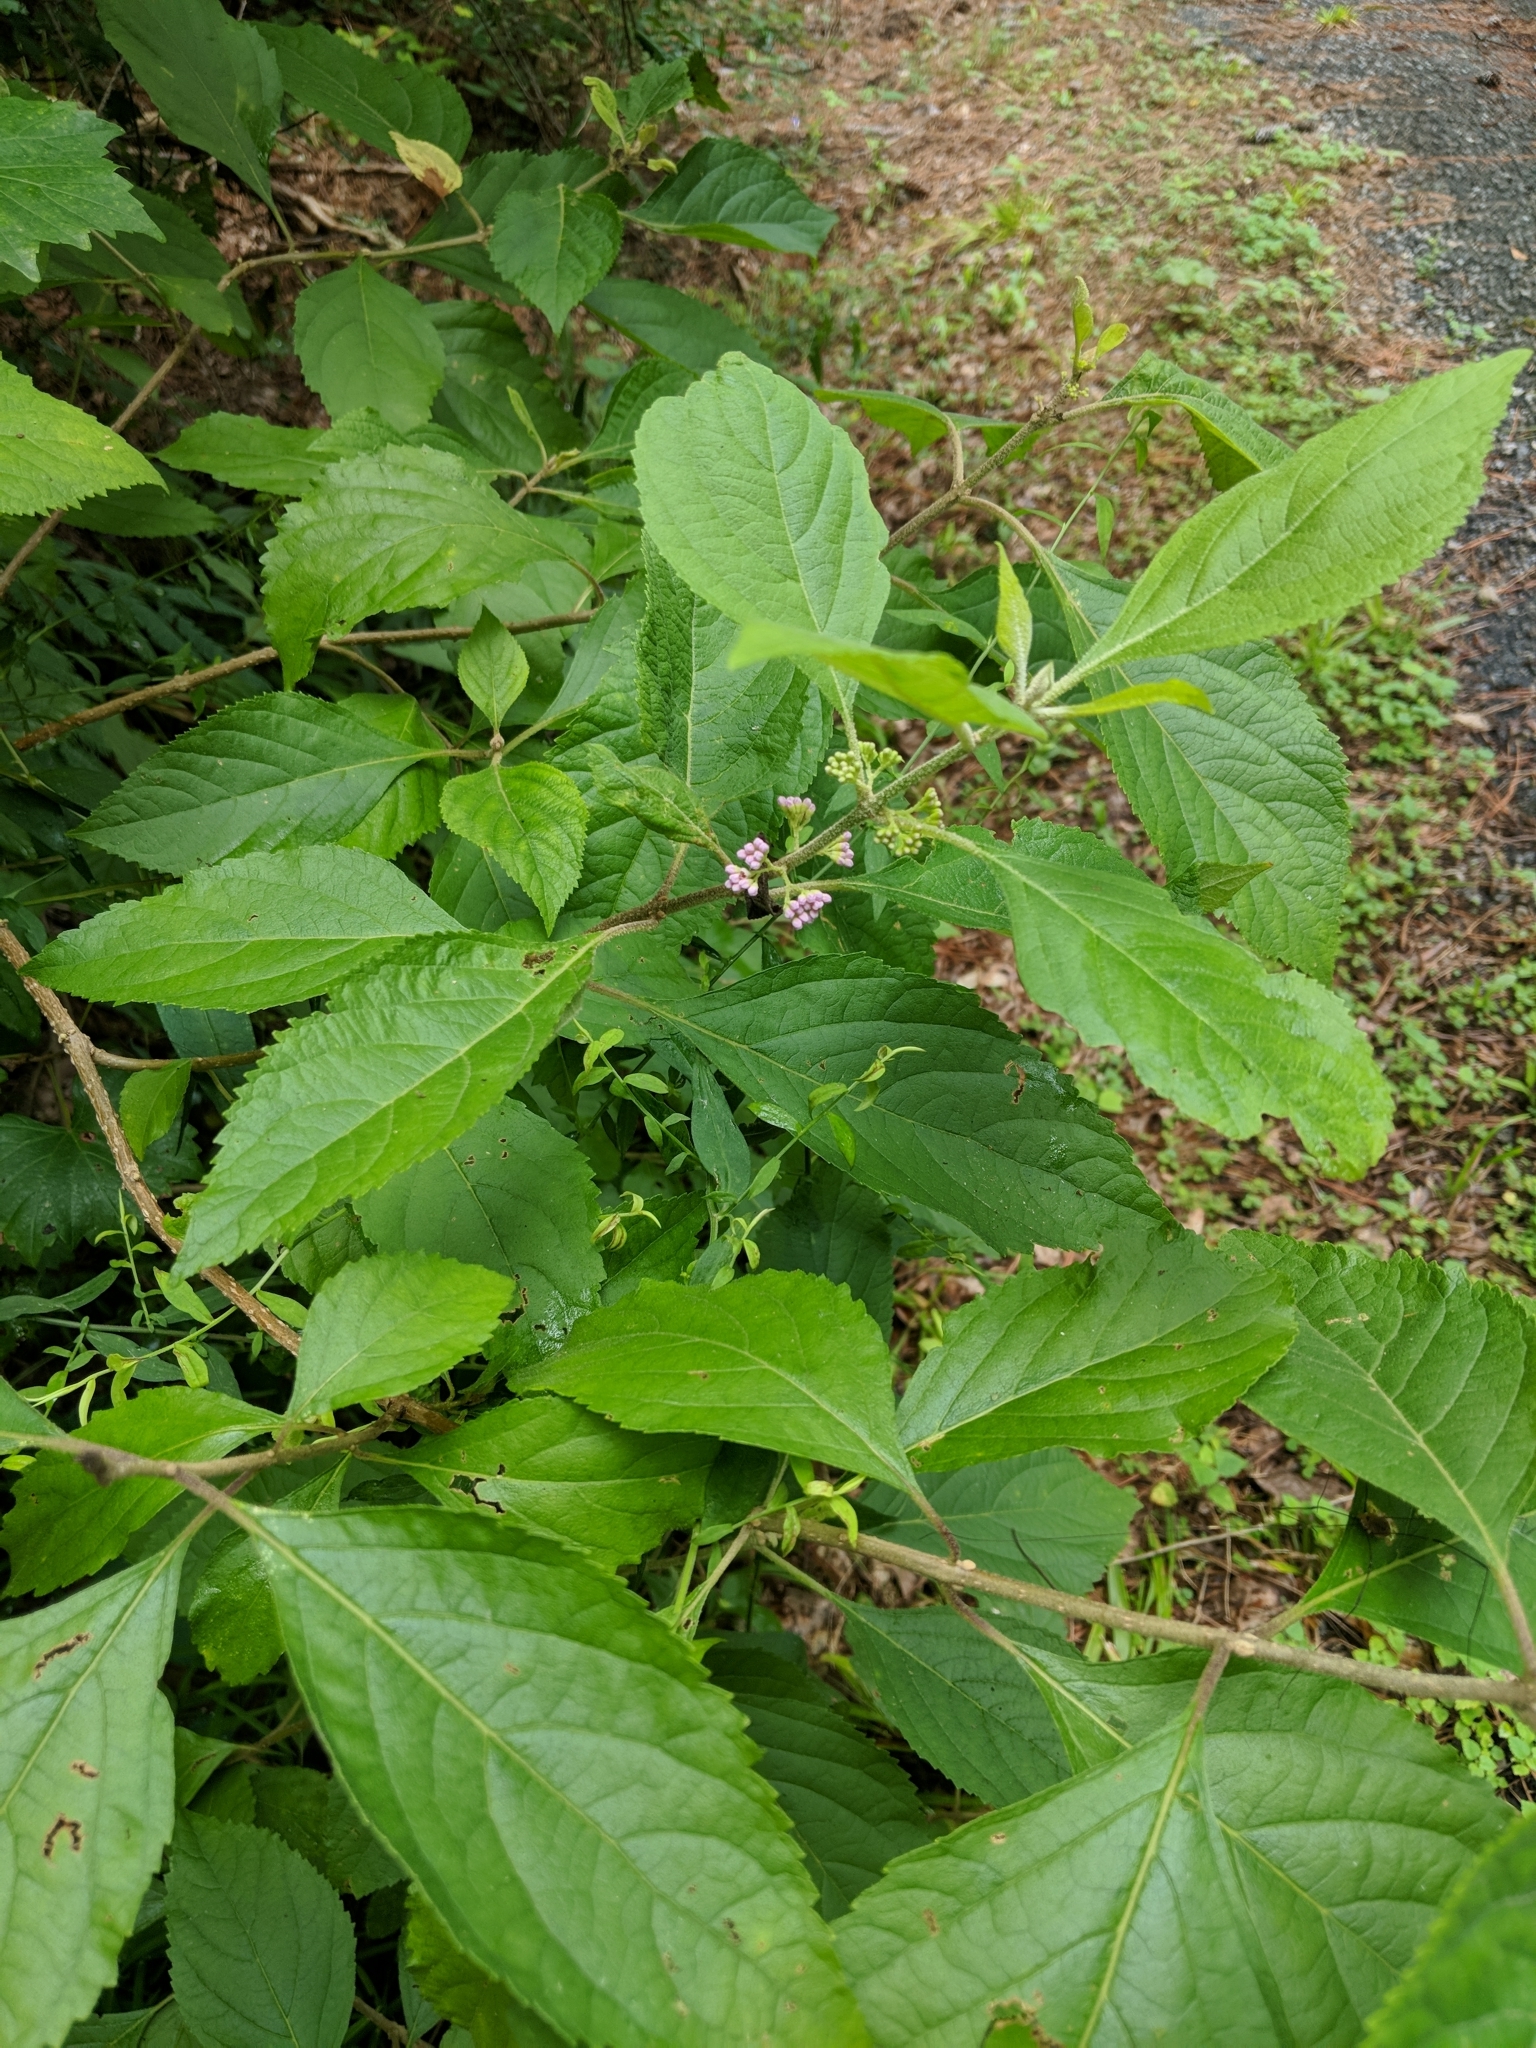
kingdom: Plantae
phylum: Tracheophyta
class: Magnoliopsida
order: Lamiales
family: Lamiaceae
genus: Callicarpa
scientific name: Callicarpa americana
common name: American beautyberry
